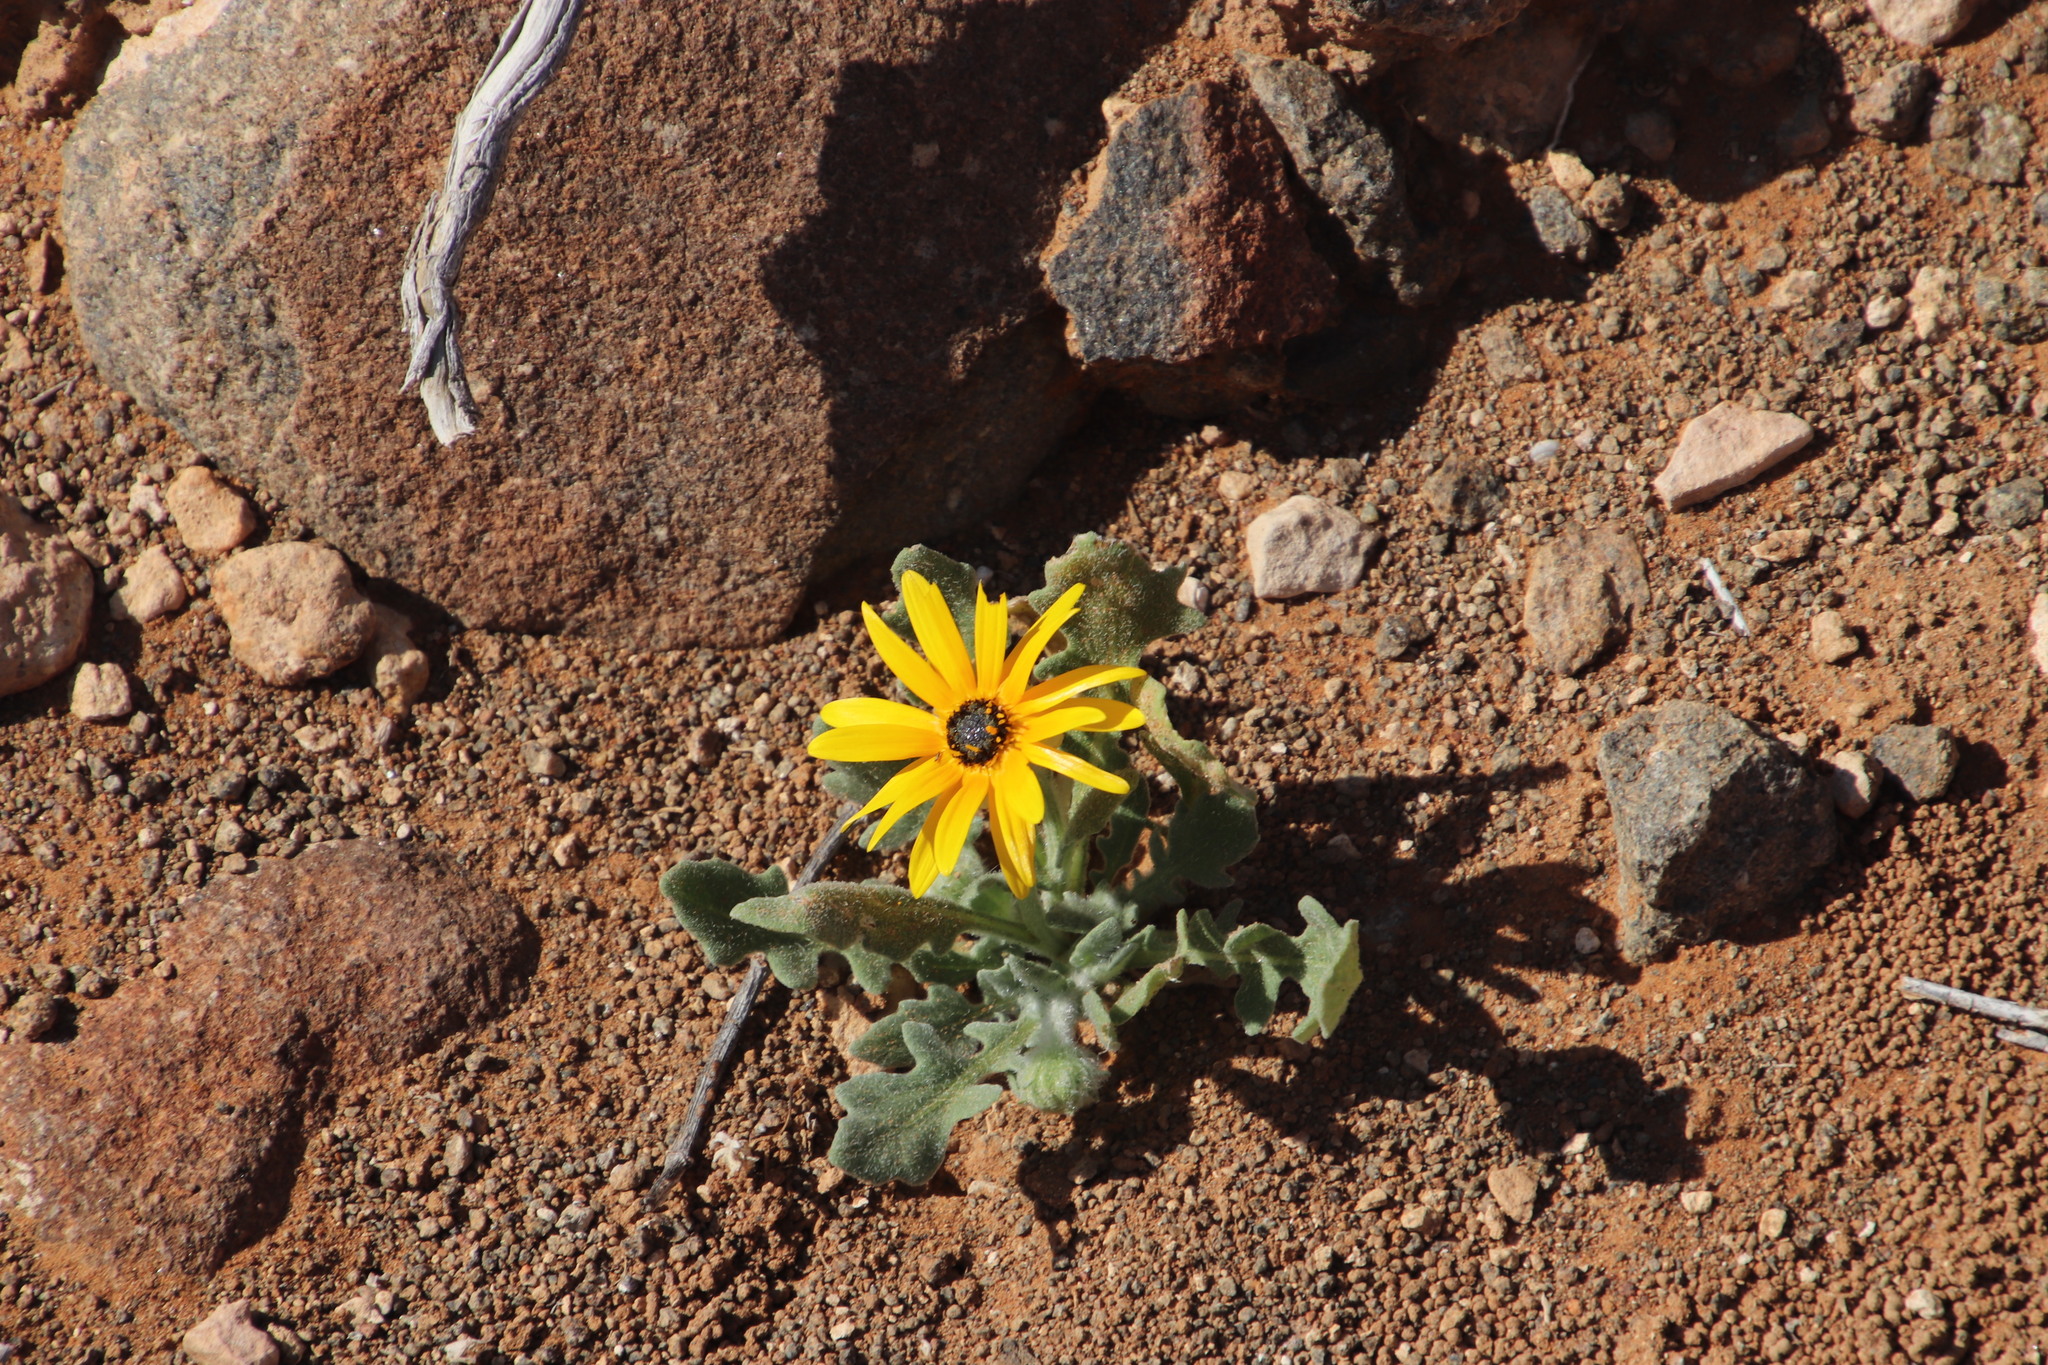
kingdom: Plantae
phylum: Tracheophyta
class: Magnoliopsida
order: Asterales
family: Asteraceae
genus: Arctotis
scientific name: Arctotis hirsuta
